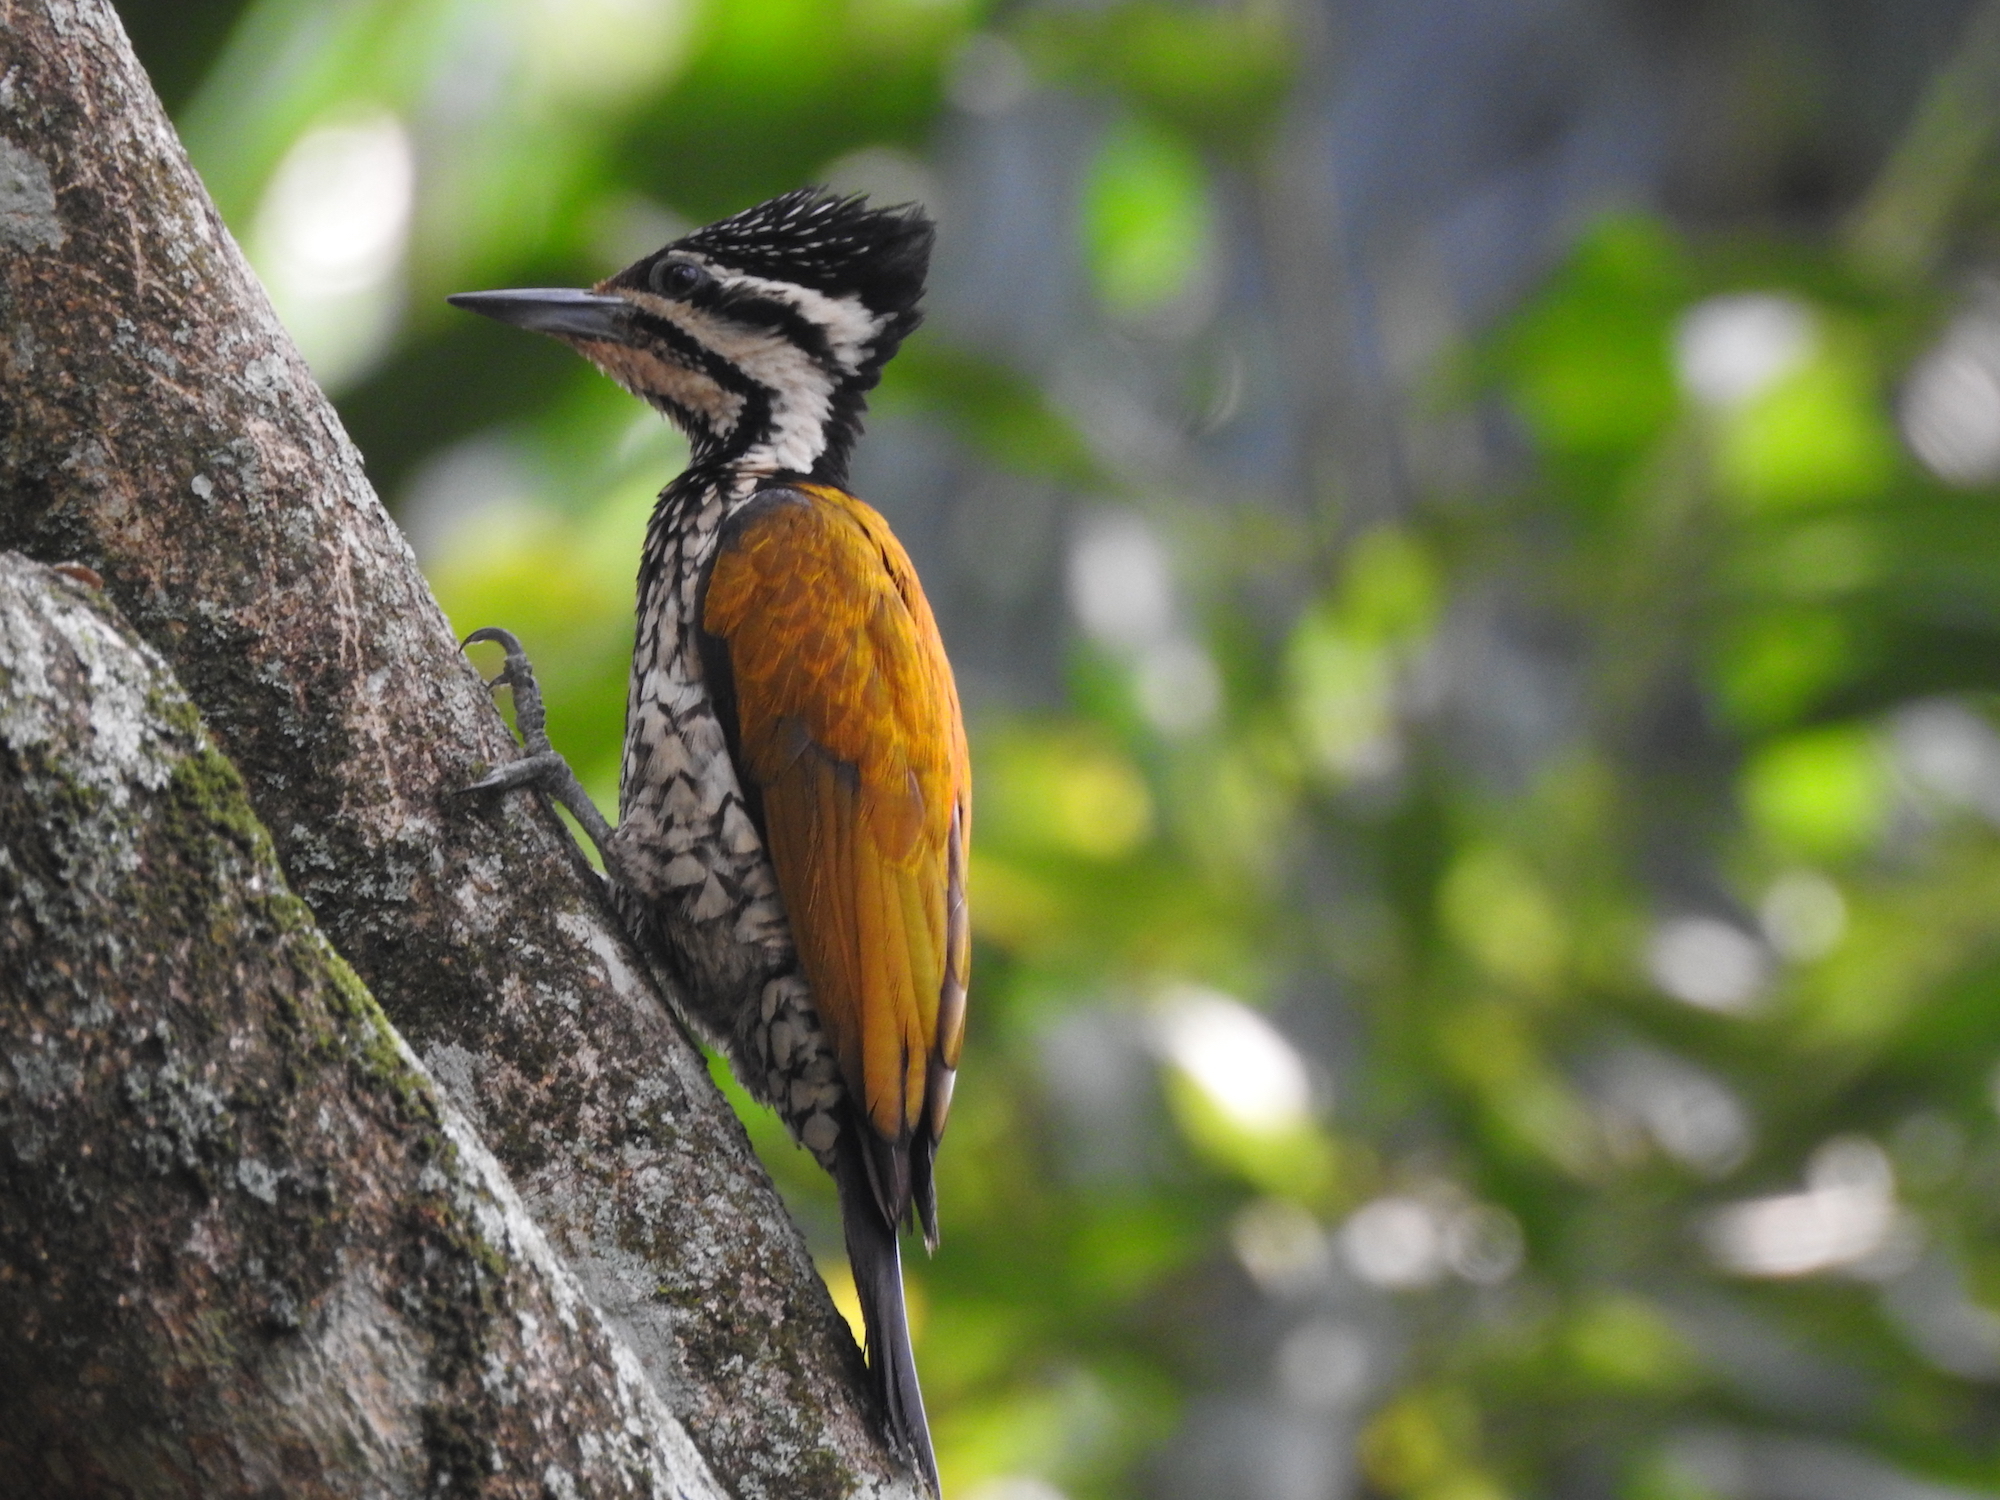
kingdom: Animalia
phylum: Chordata
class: Aves
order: Piciformes
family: Picidae
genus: Dinopium
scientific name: Dinopium javanense
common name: Common flameback
